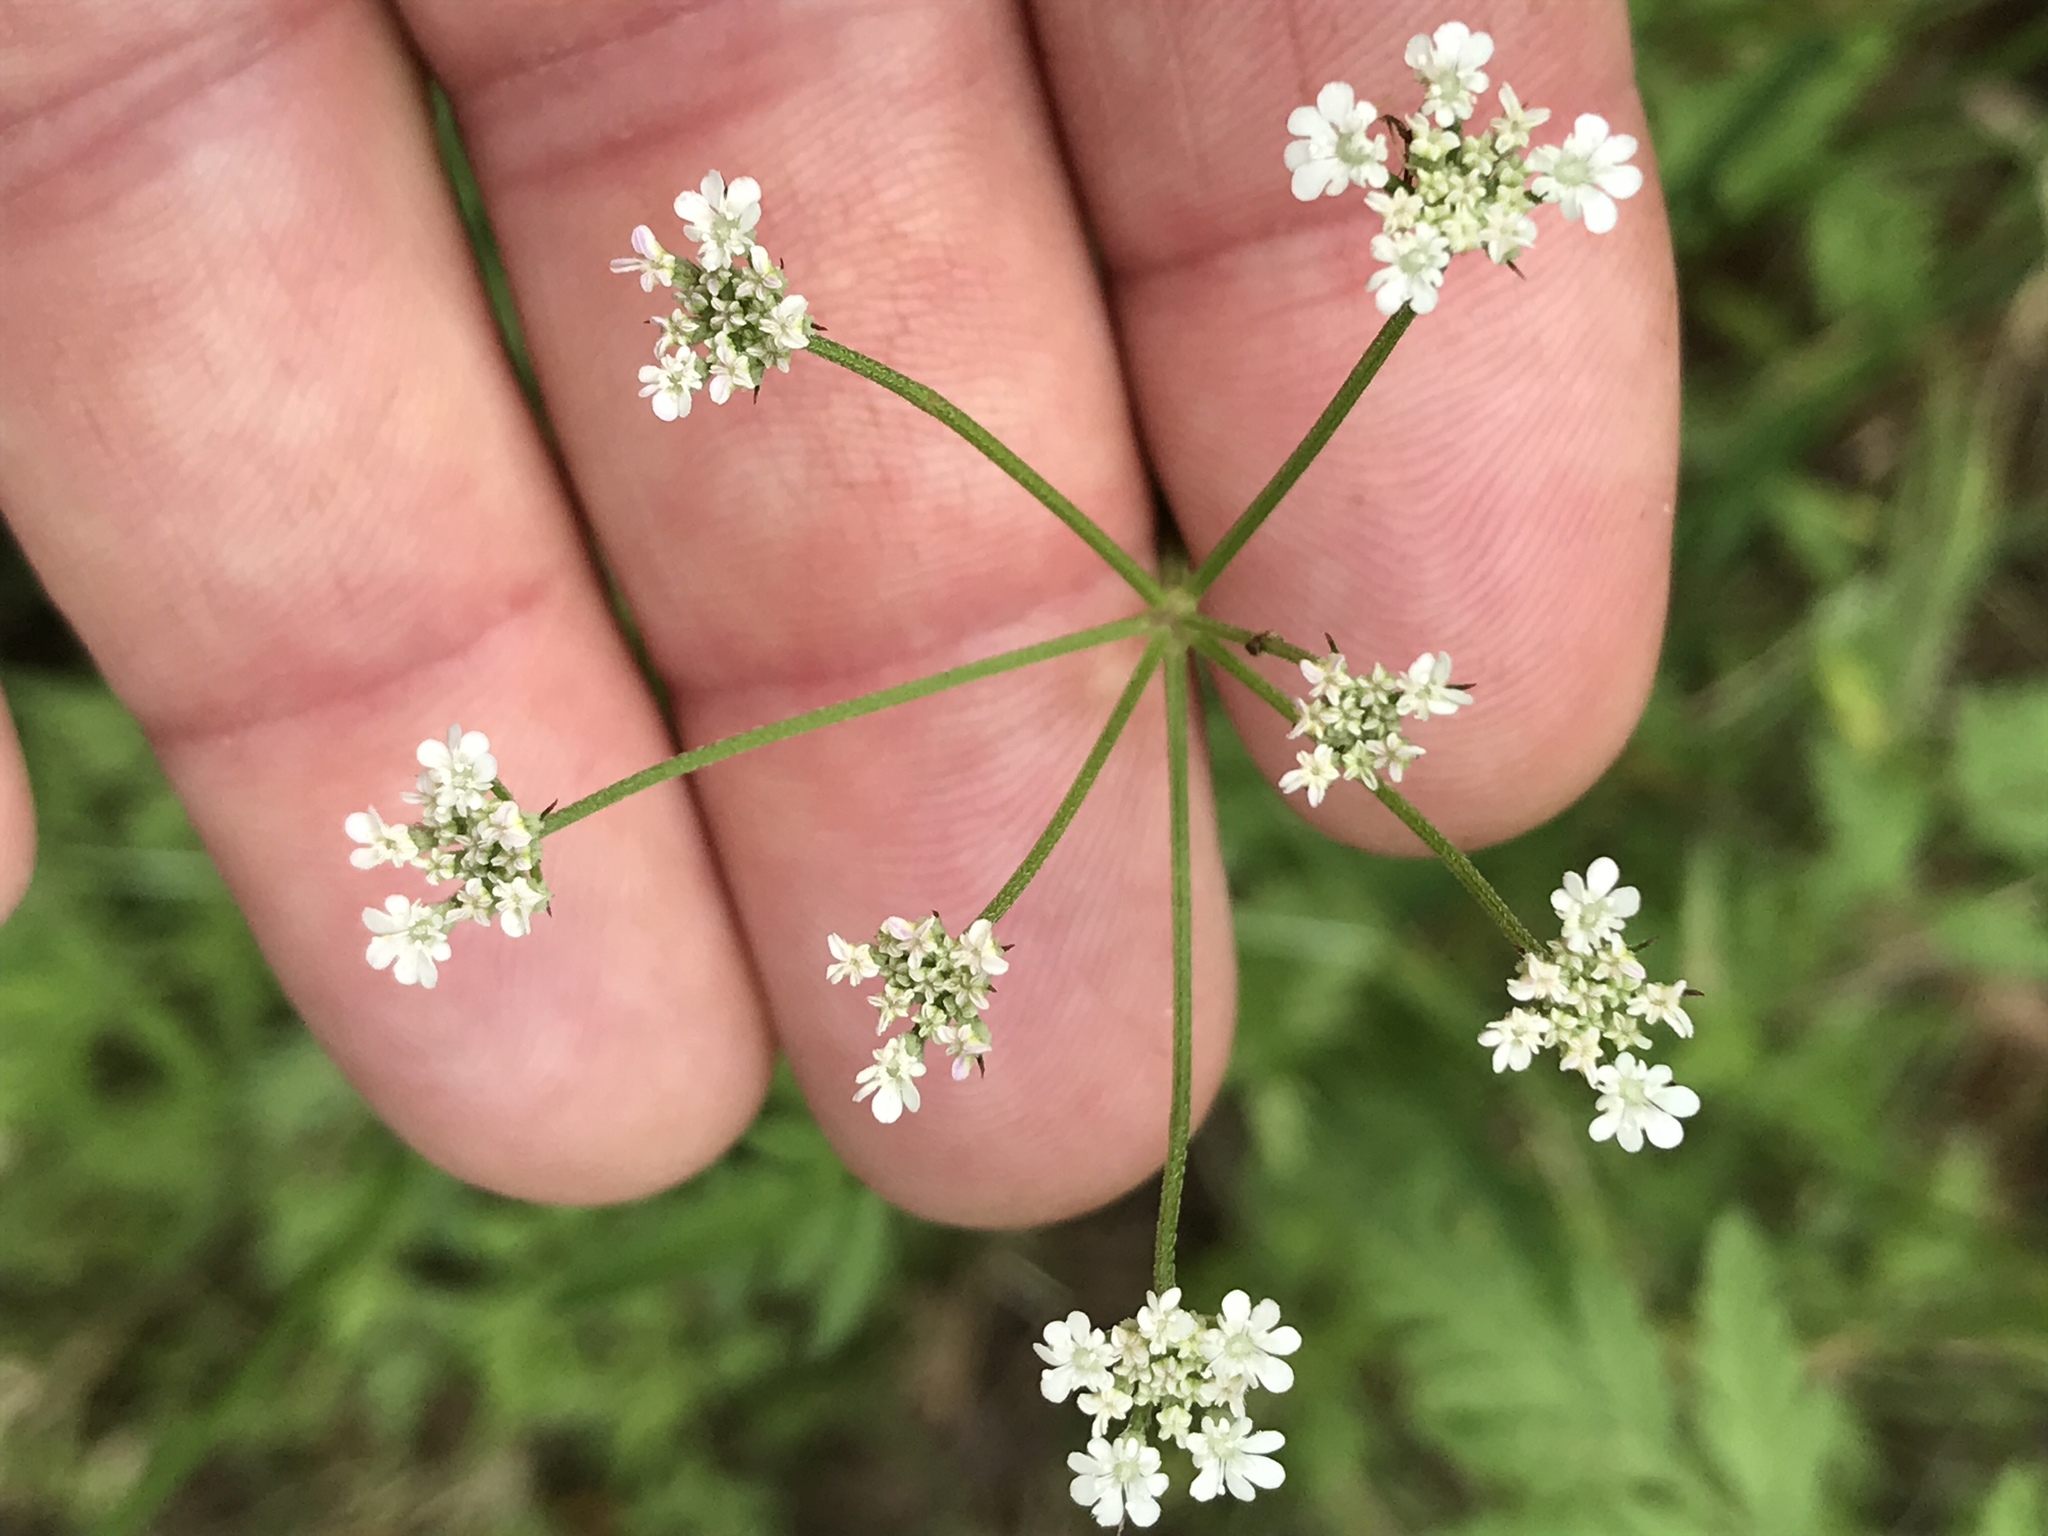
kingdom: Plantae
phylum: Tracheophyta
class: Magnoliopsida
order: Apiales
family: Apiaceae
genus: Torilis
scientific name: Torilis arvensis
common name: Spreading hedge-parsley
